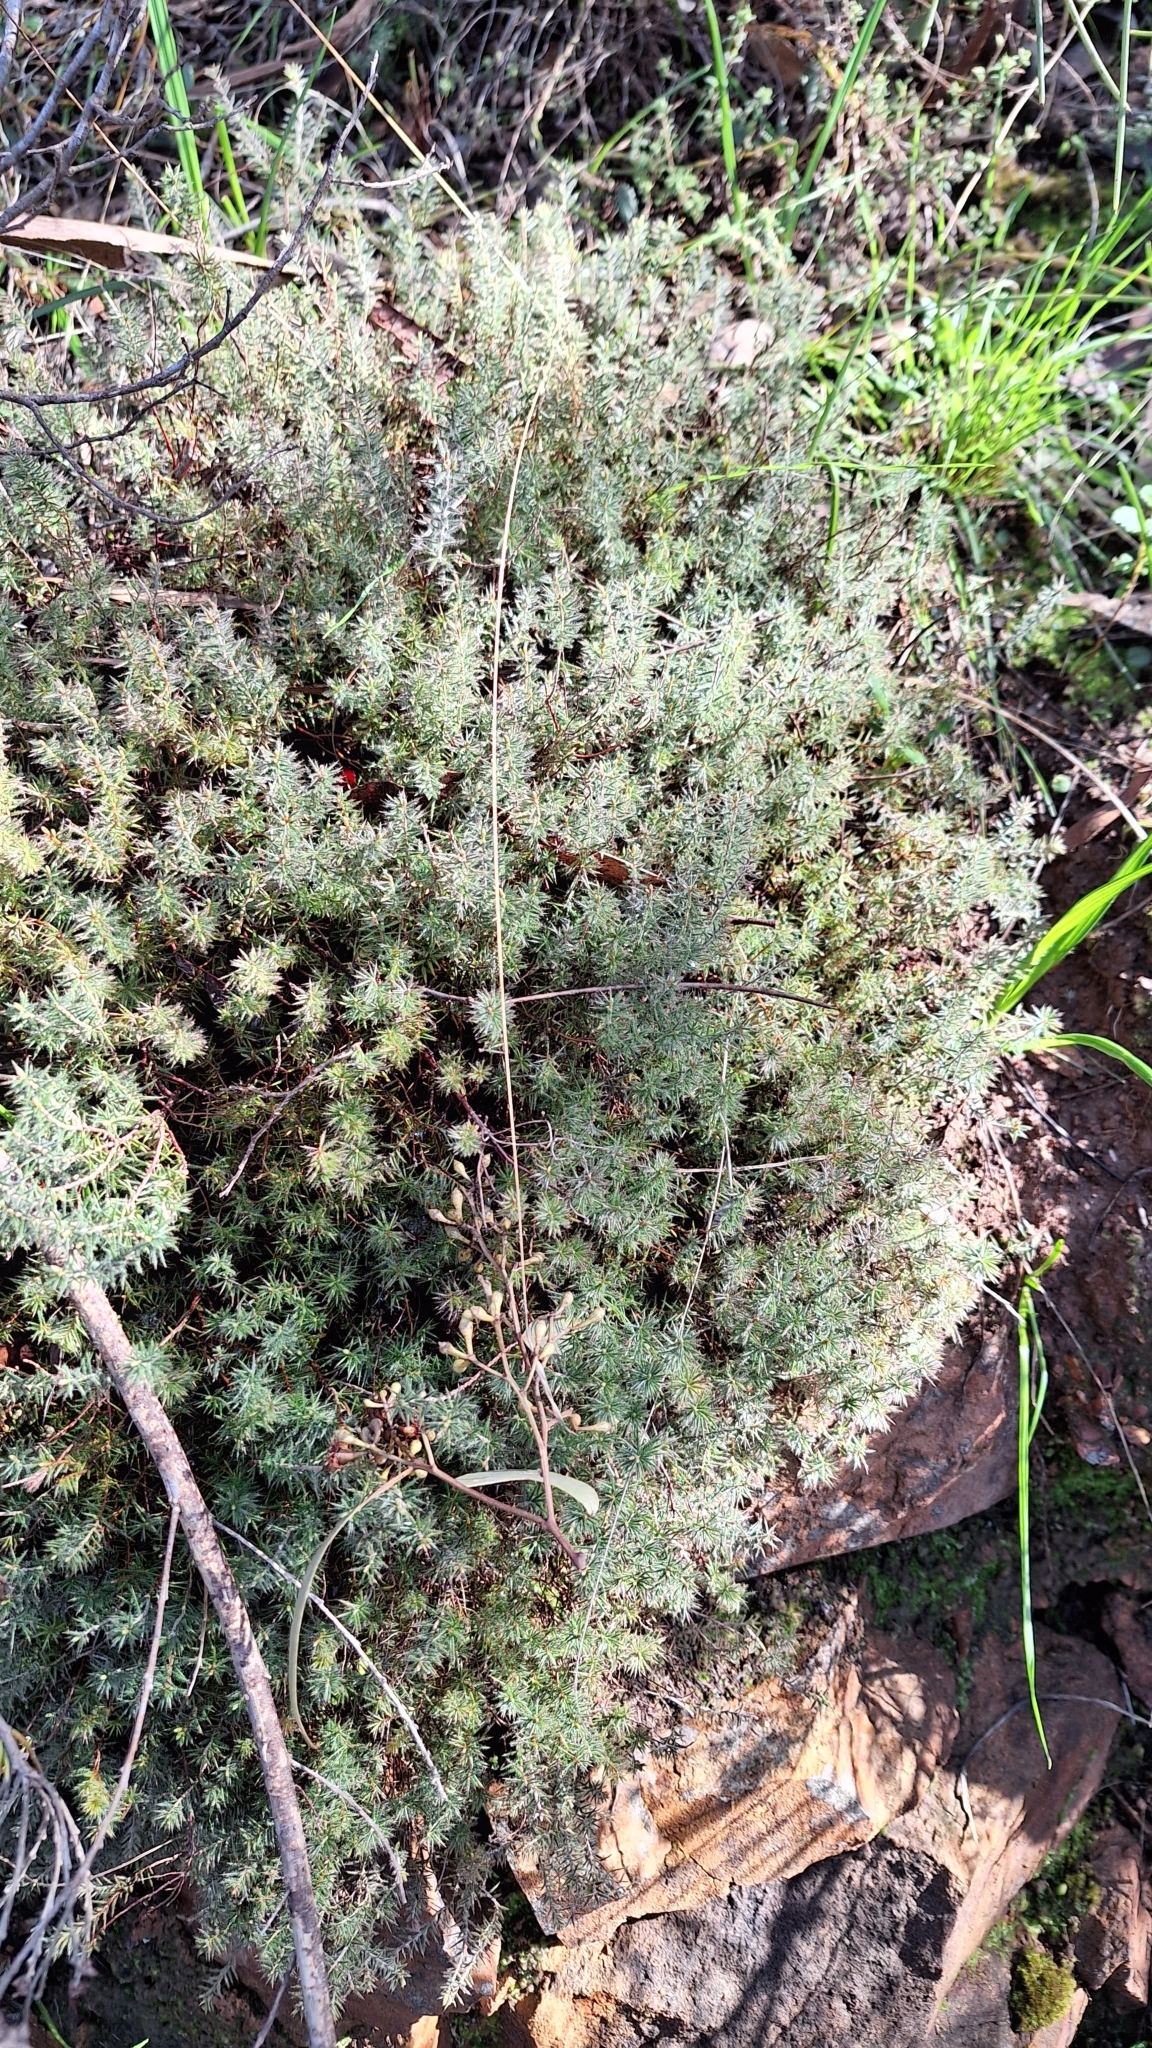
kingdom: Plantae
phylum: Tracheophyta
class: Magnoliopsida
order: Ericales
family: Ericaceae
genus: Acrotriche
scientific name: Acrotriche serrulata
